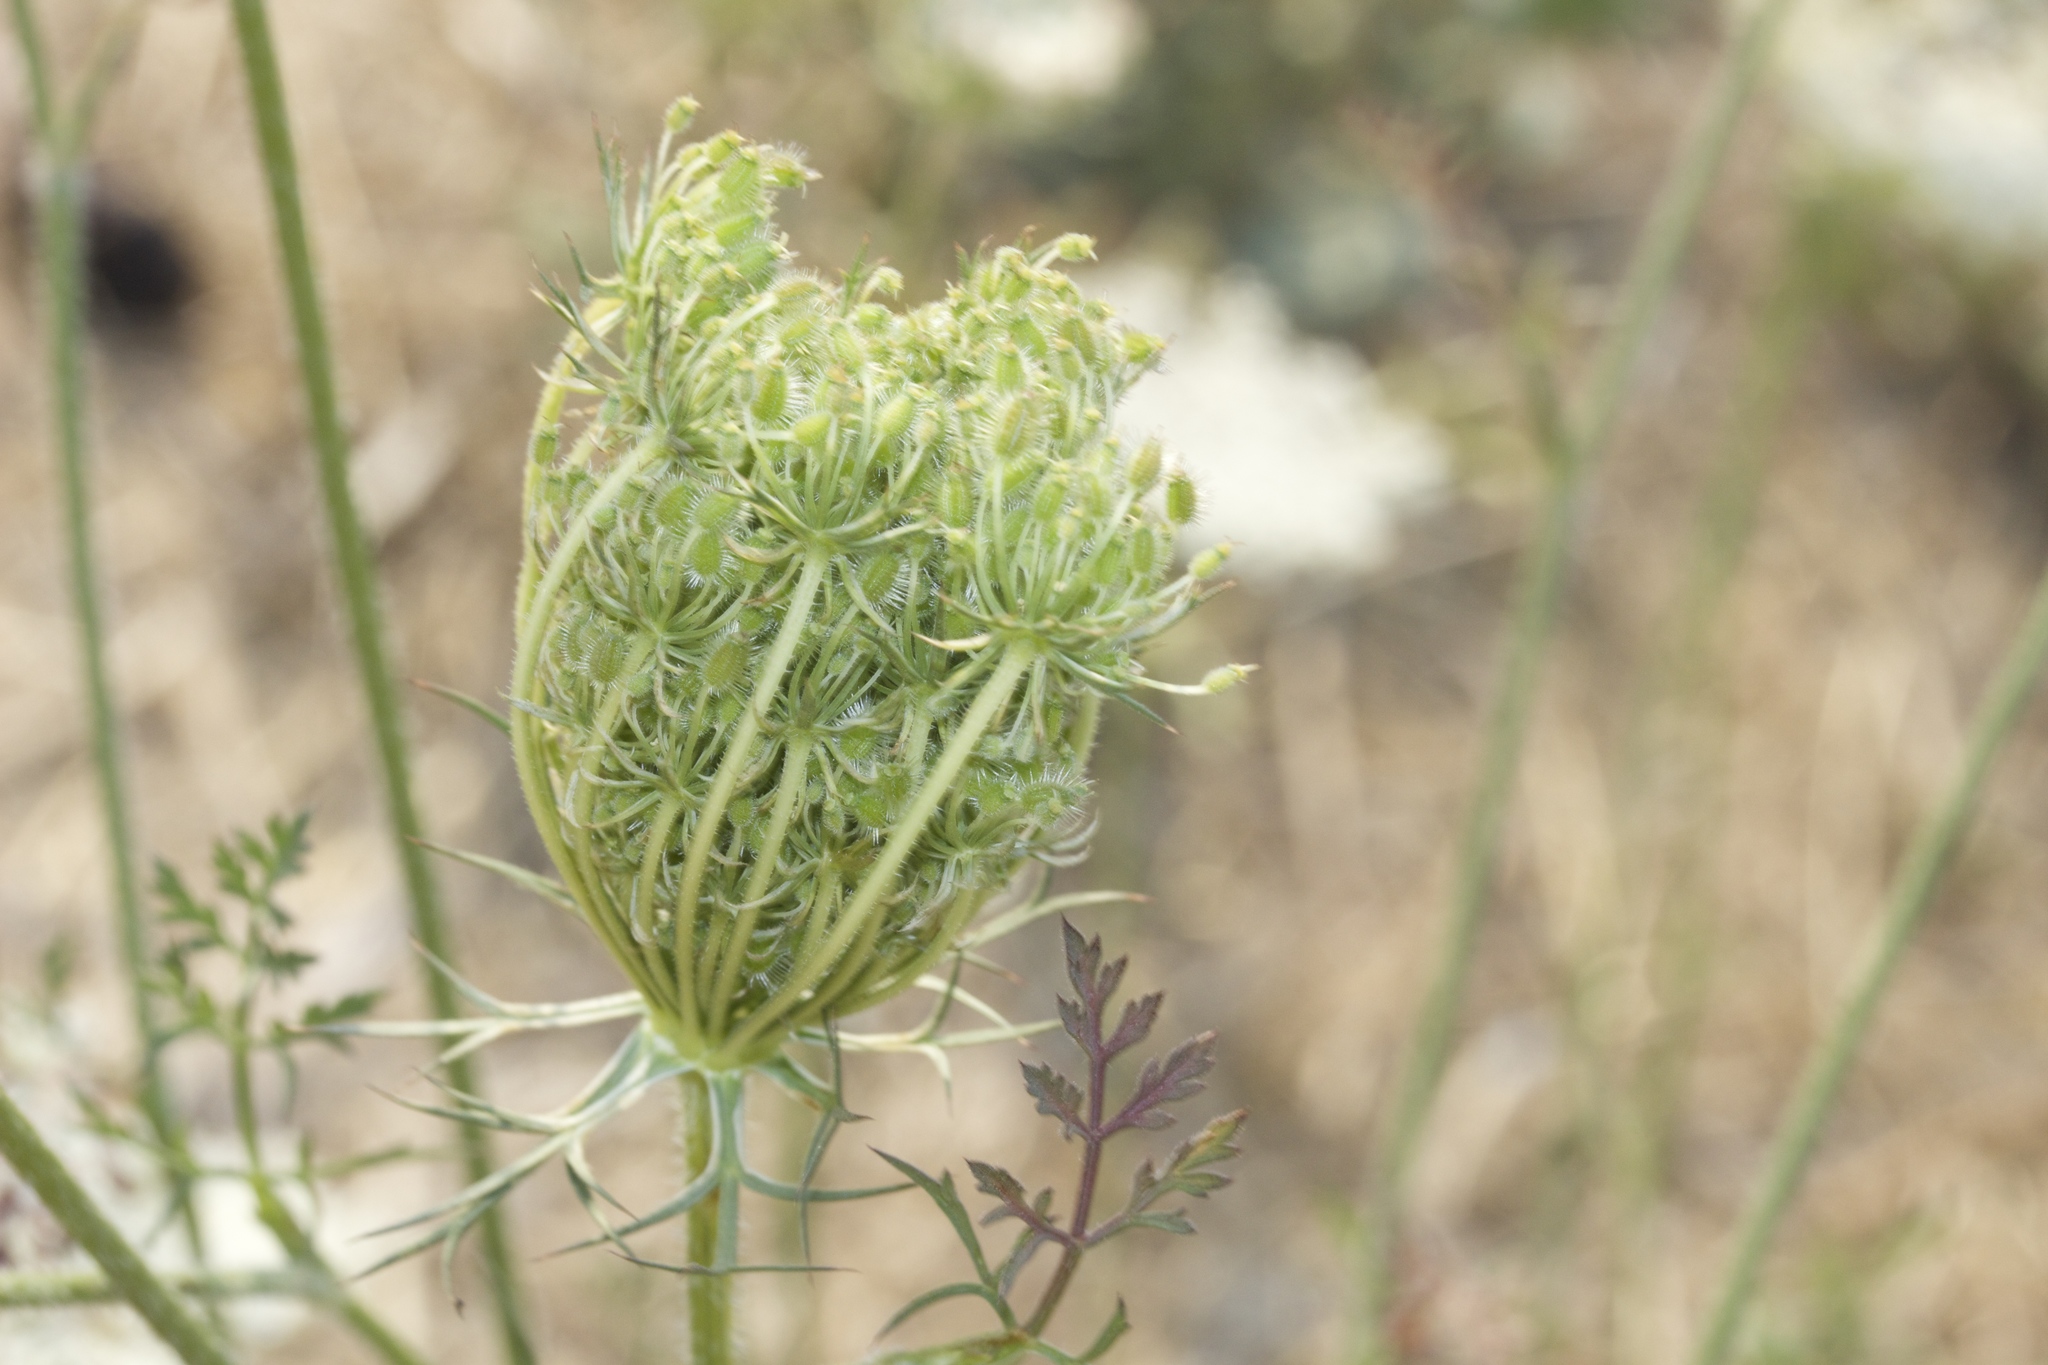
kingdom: Plantae
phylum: Tracheophyta
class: Magnoliopsida
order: Apiales
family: Apiaceae
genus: Daucus
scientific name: Daucus carota
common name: Wild carrot
